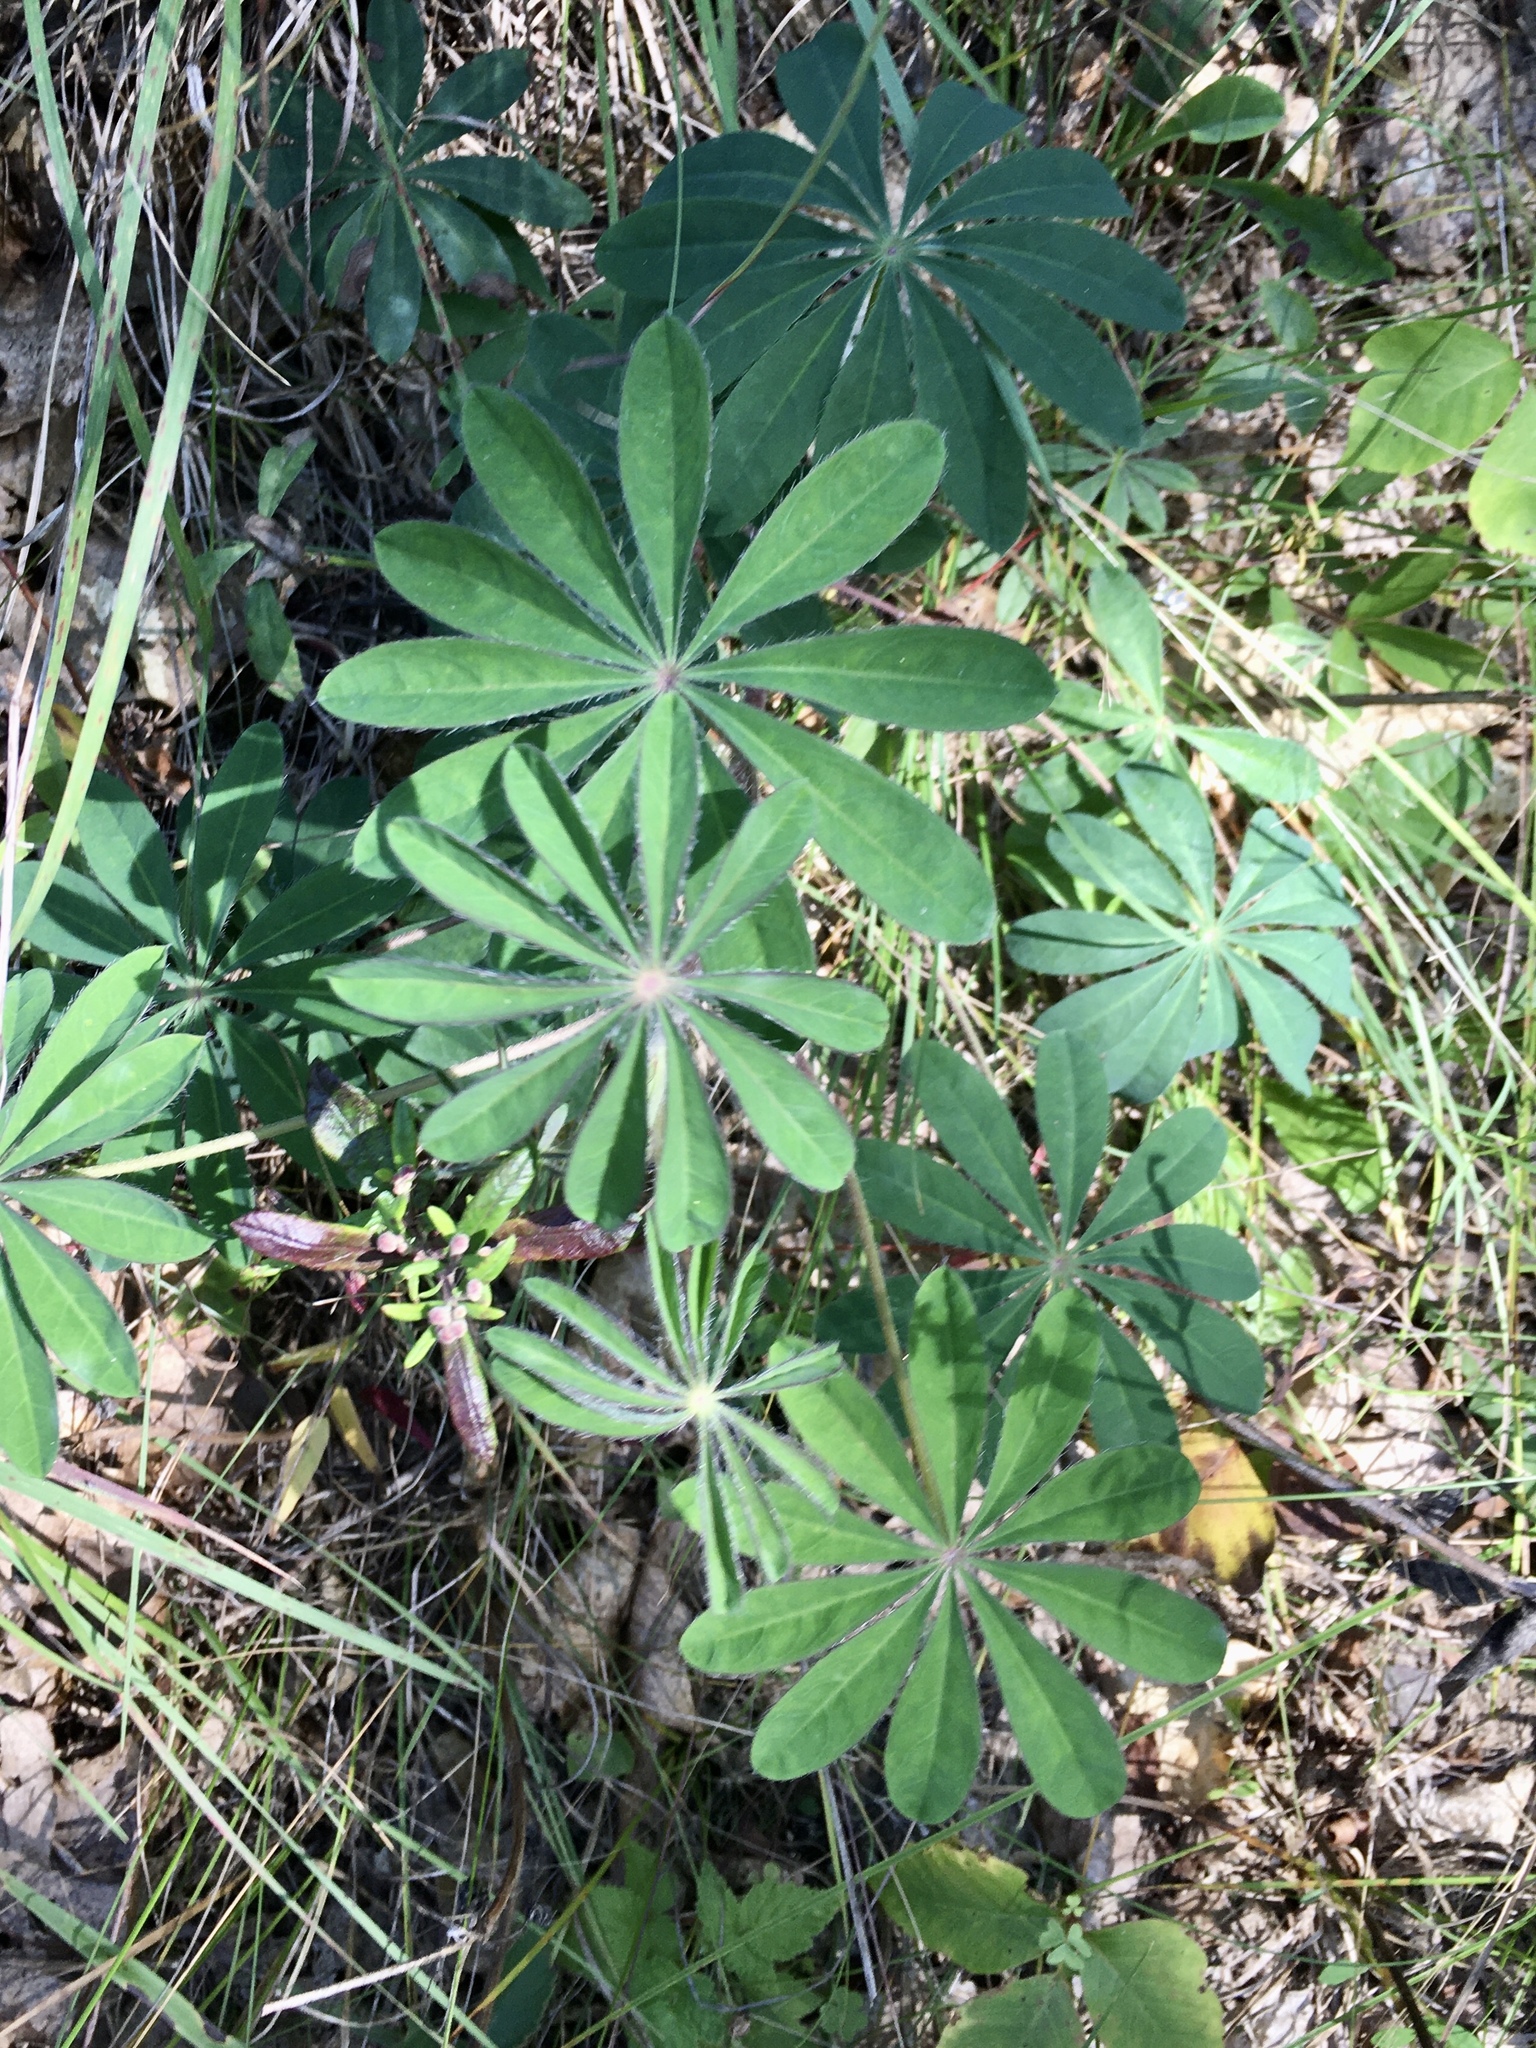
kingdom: Plantae
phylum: Tracheophyta
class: Magnoliopsida
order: Fabales
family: Fabaceae
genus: Lupinus
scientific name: Lupinus perennis
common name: Sundial lupine
